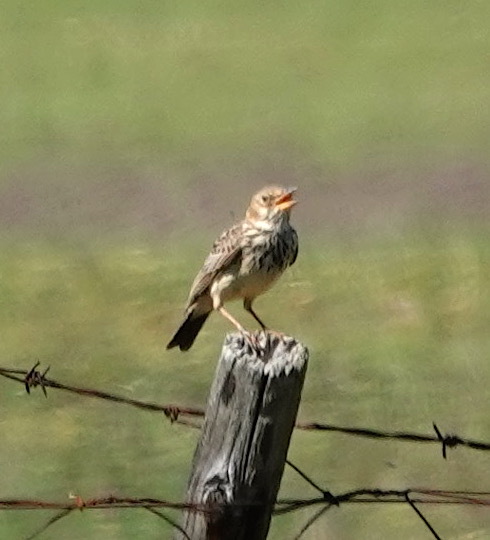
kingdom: Animalia
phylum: Chordata
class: Aves
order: Passeriformes
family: Alaudidae
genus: Galerida
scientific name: Galerida magnirostris
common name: Large-billed lark
